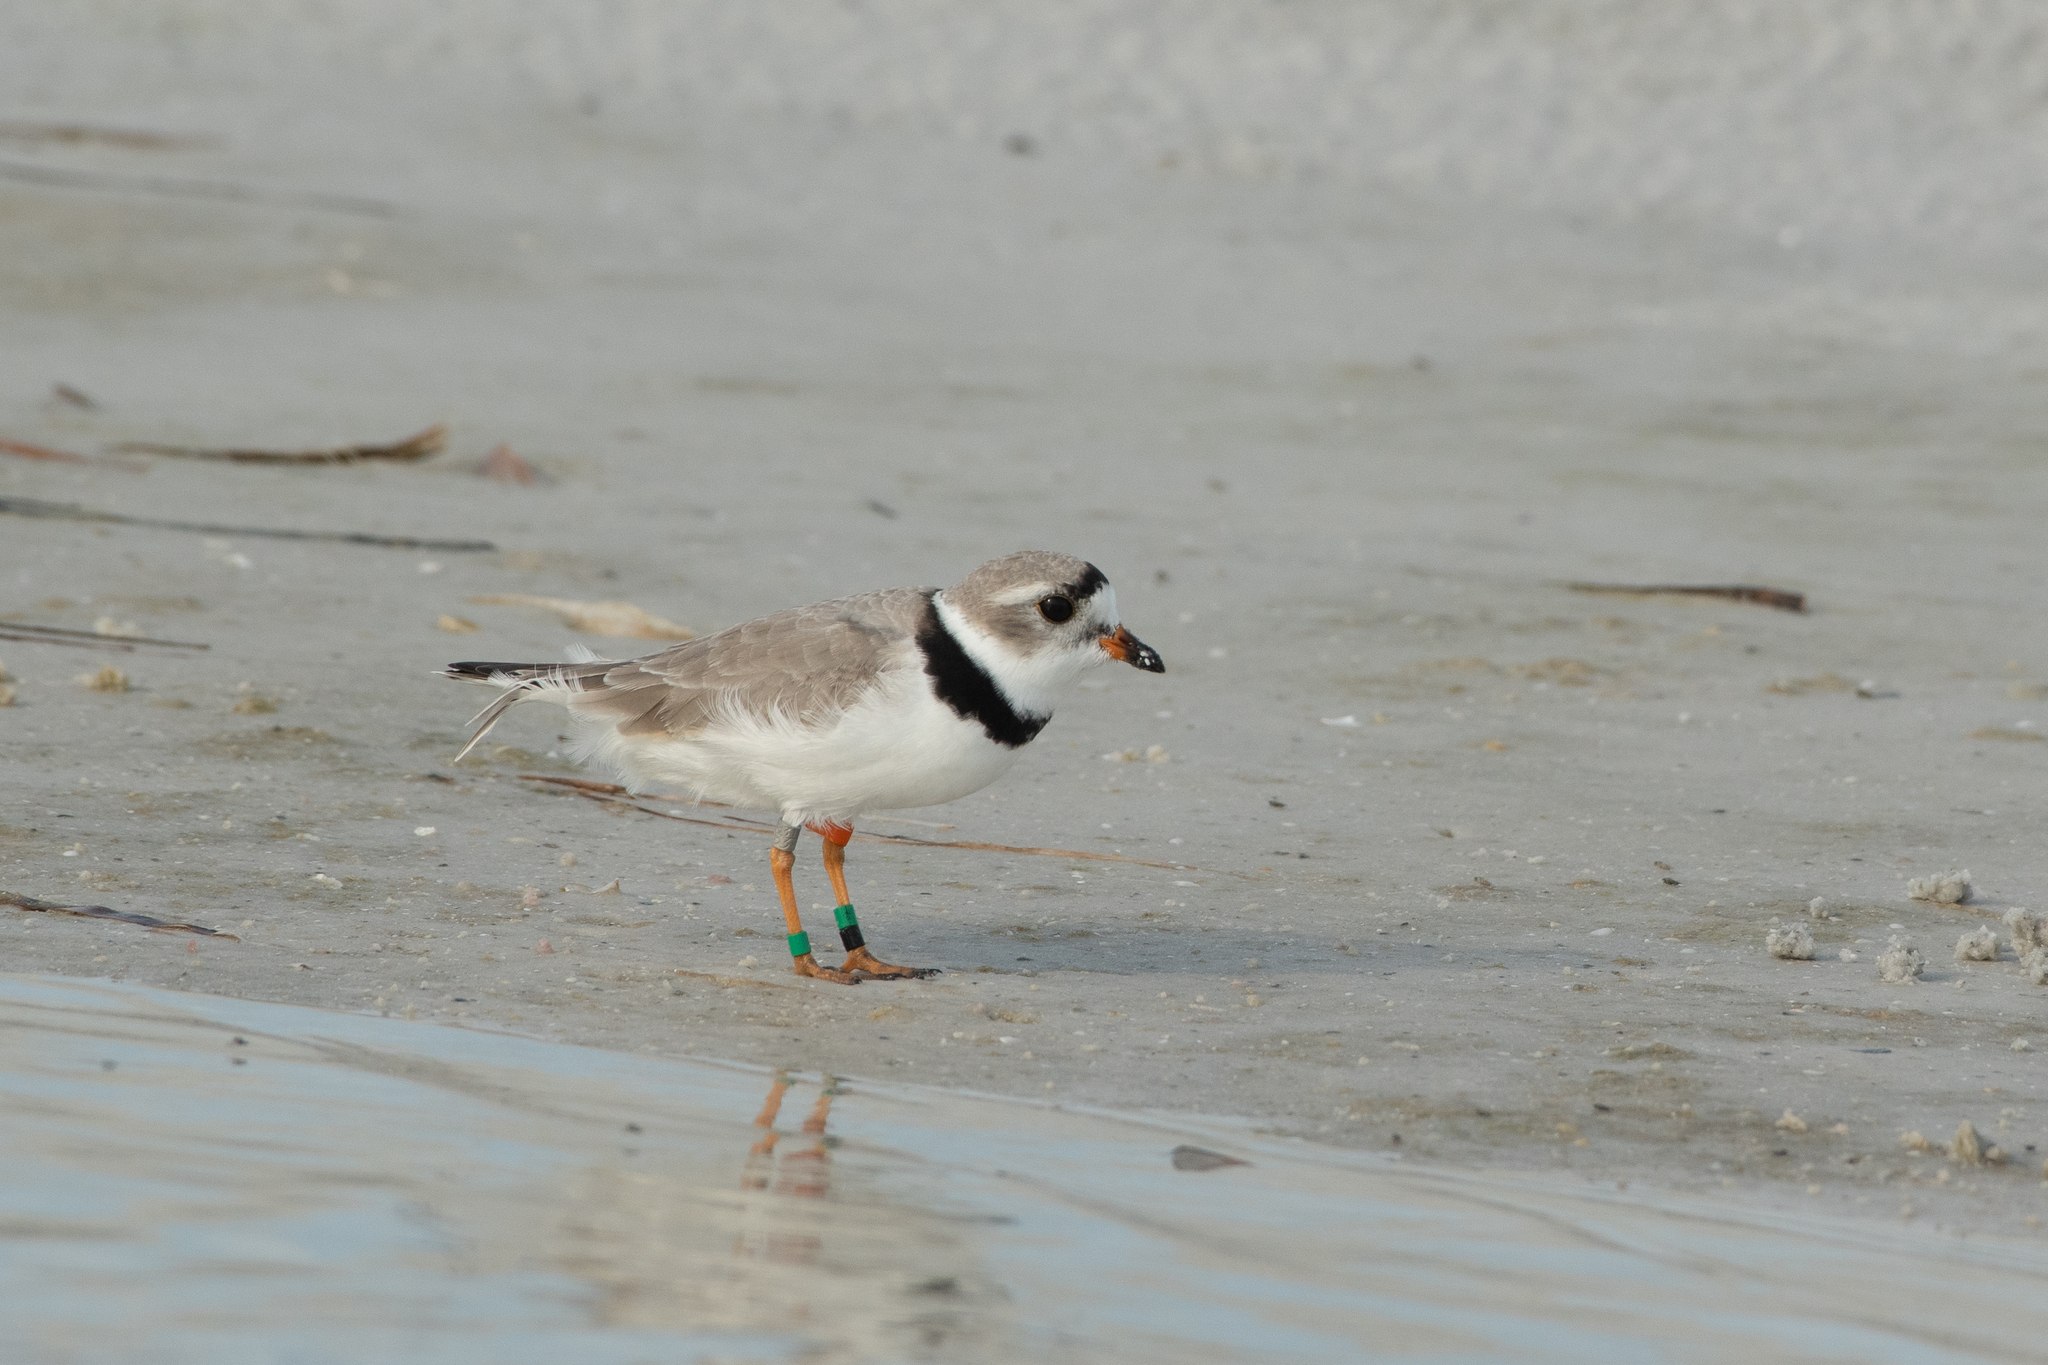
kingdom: Animalia
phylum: Chordata
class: Aves
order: Charadriiformes
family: Charadriidae
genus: Charadrius
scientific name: Charadrius melodus
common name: Piping plover
